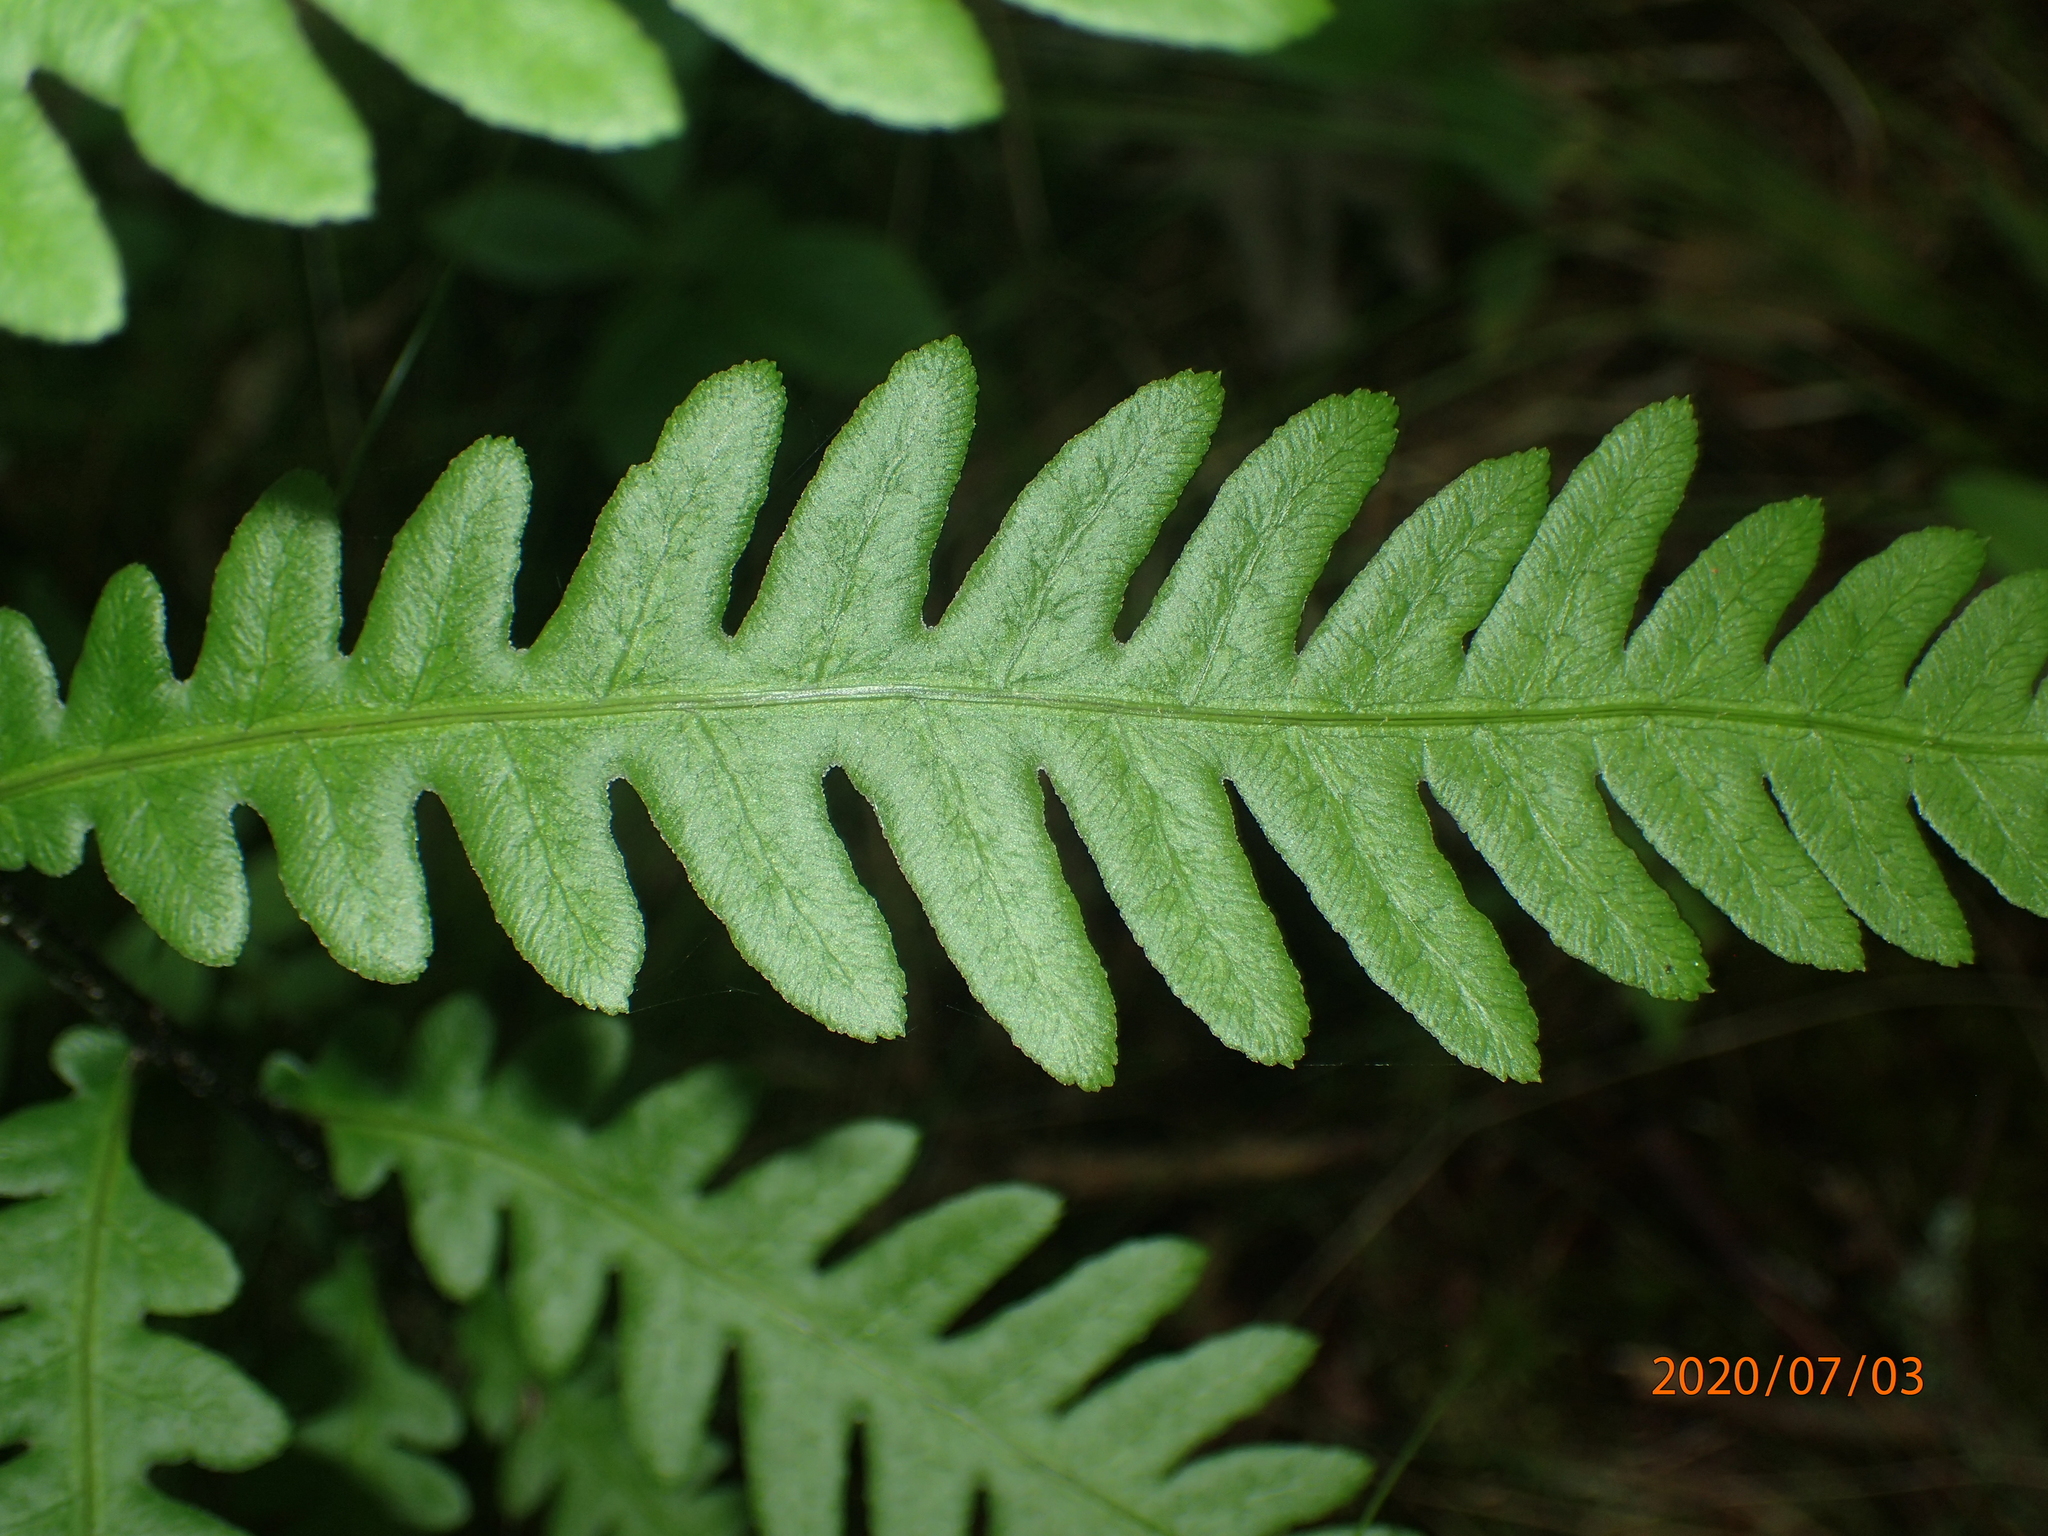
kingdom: Plantae
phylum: Tracheophyta
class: Polypodiopsida
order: Polypodiales
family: Blechnaceae
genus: Anchistea
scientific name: Anchistea virginica
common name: Virginia chain fern
